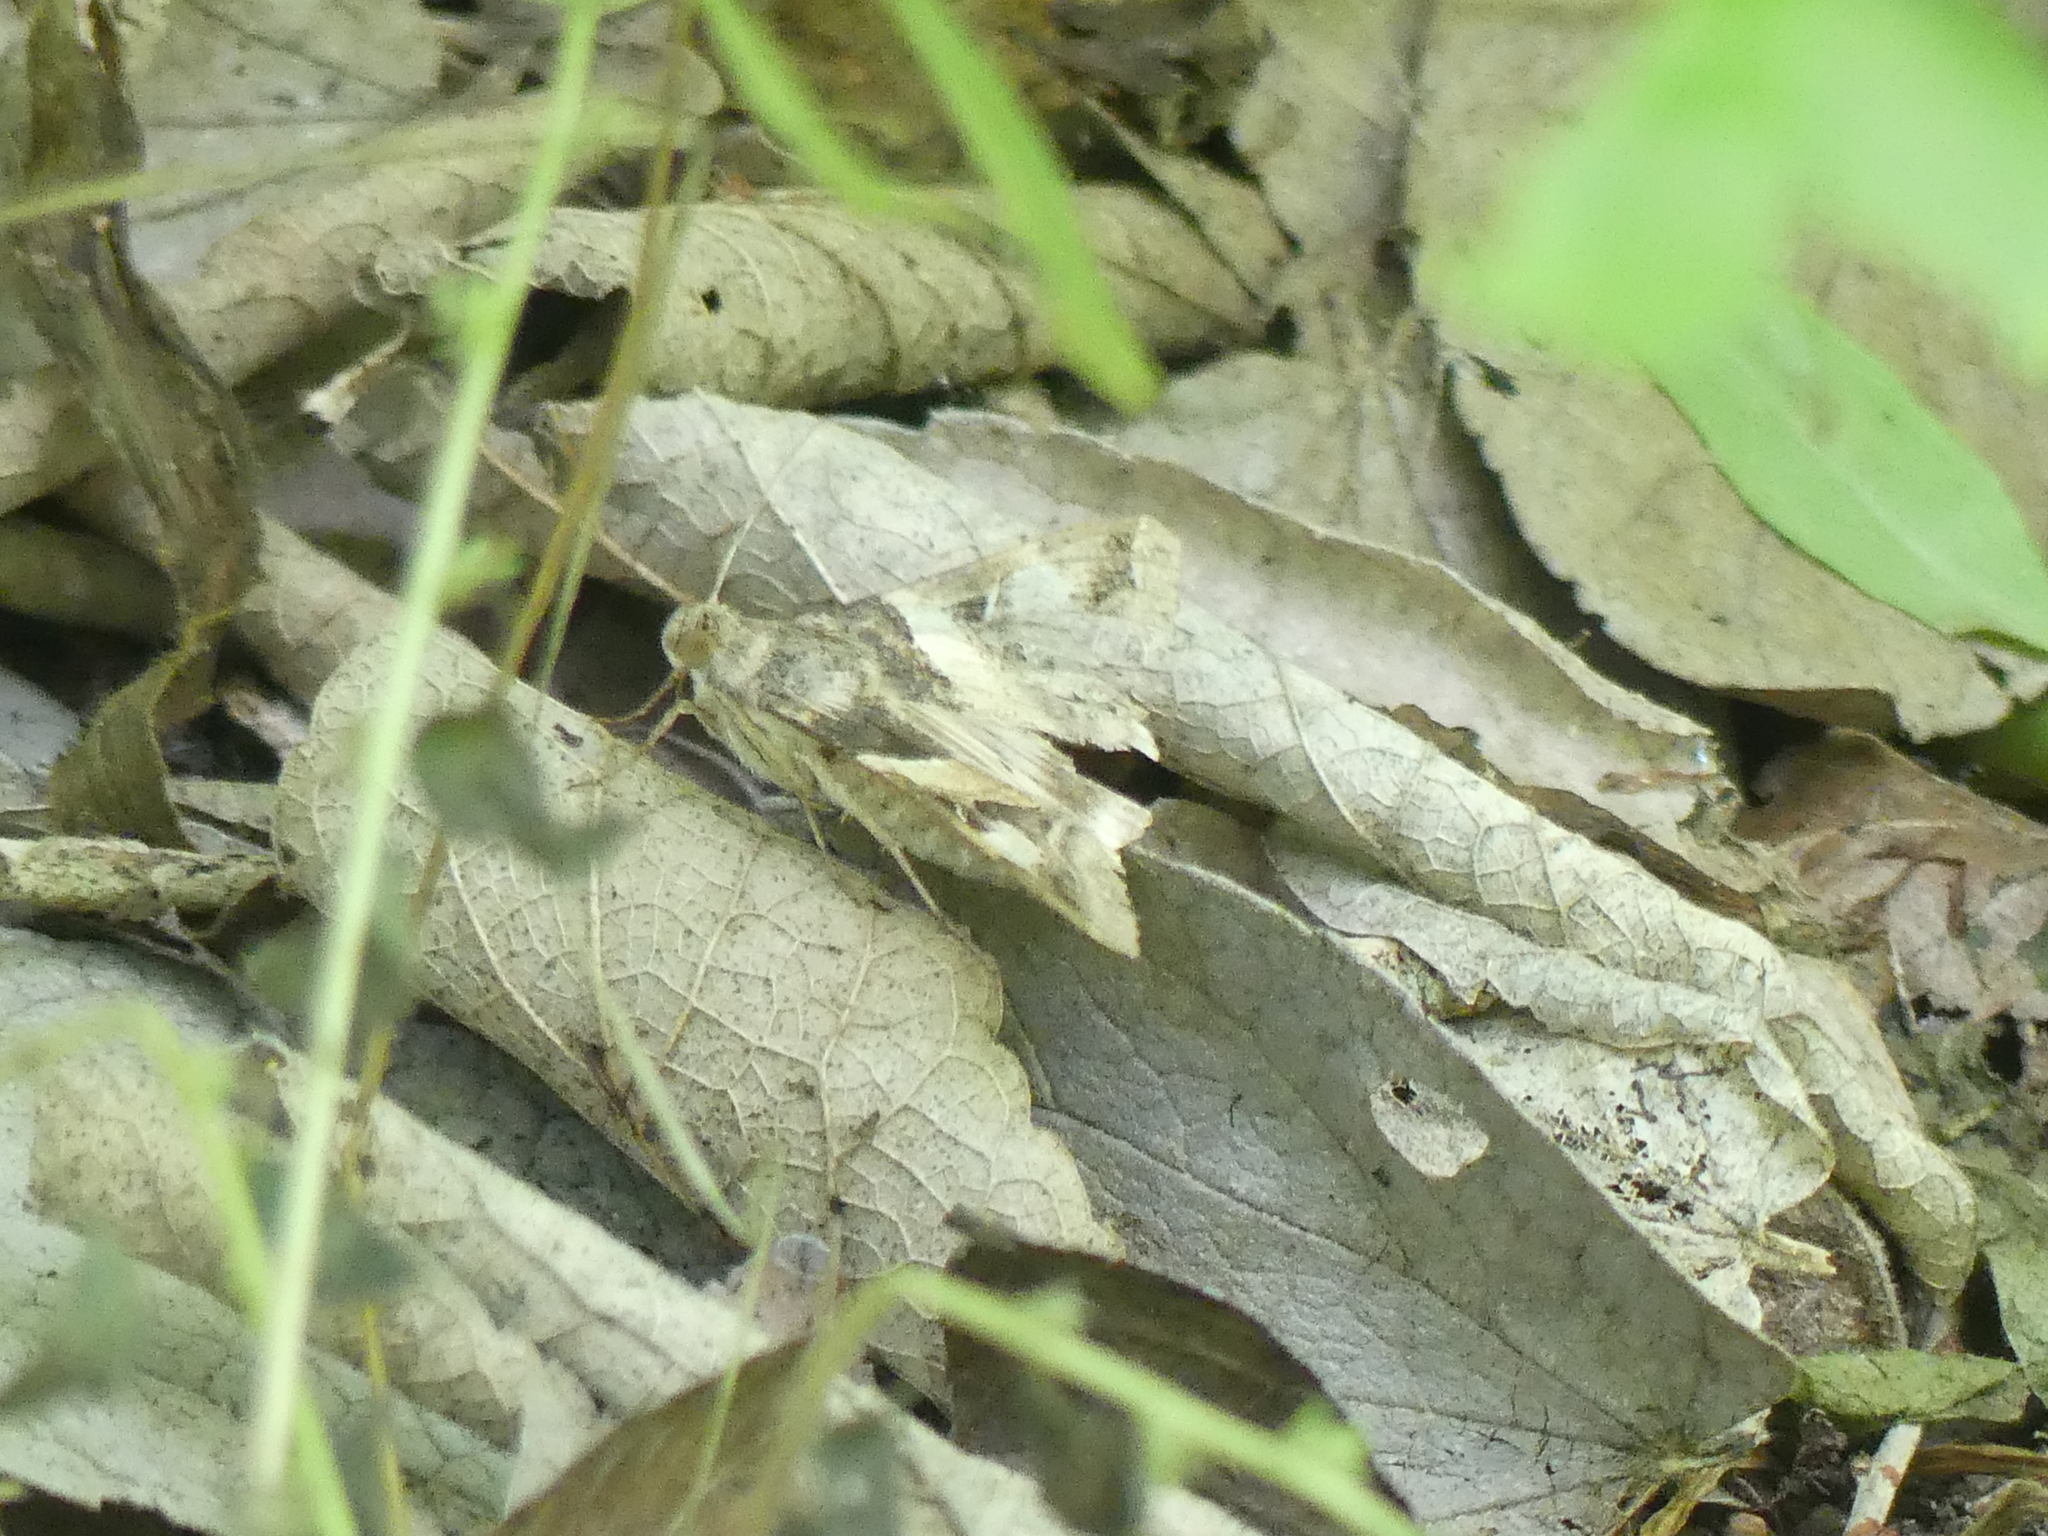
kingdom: Animalia
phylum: Arthropoda
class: Insecta
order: Lepidoptera
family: Erebidae
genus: Melipotis
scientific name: Melipotis indomita
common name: Moth
